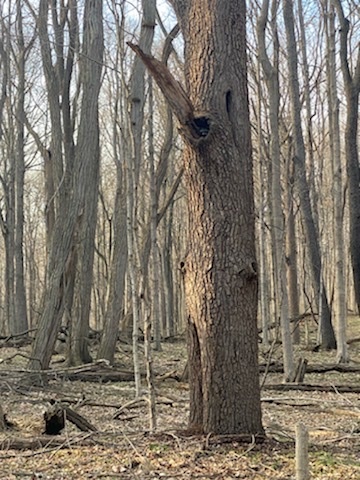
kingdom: Animalia
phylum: Chordata
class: Mammalia
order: Carnivora
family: Procyonidae
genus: Procyon
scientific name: Procyon lotor
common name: Raccoon
